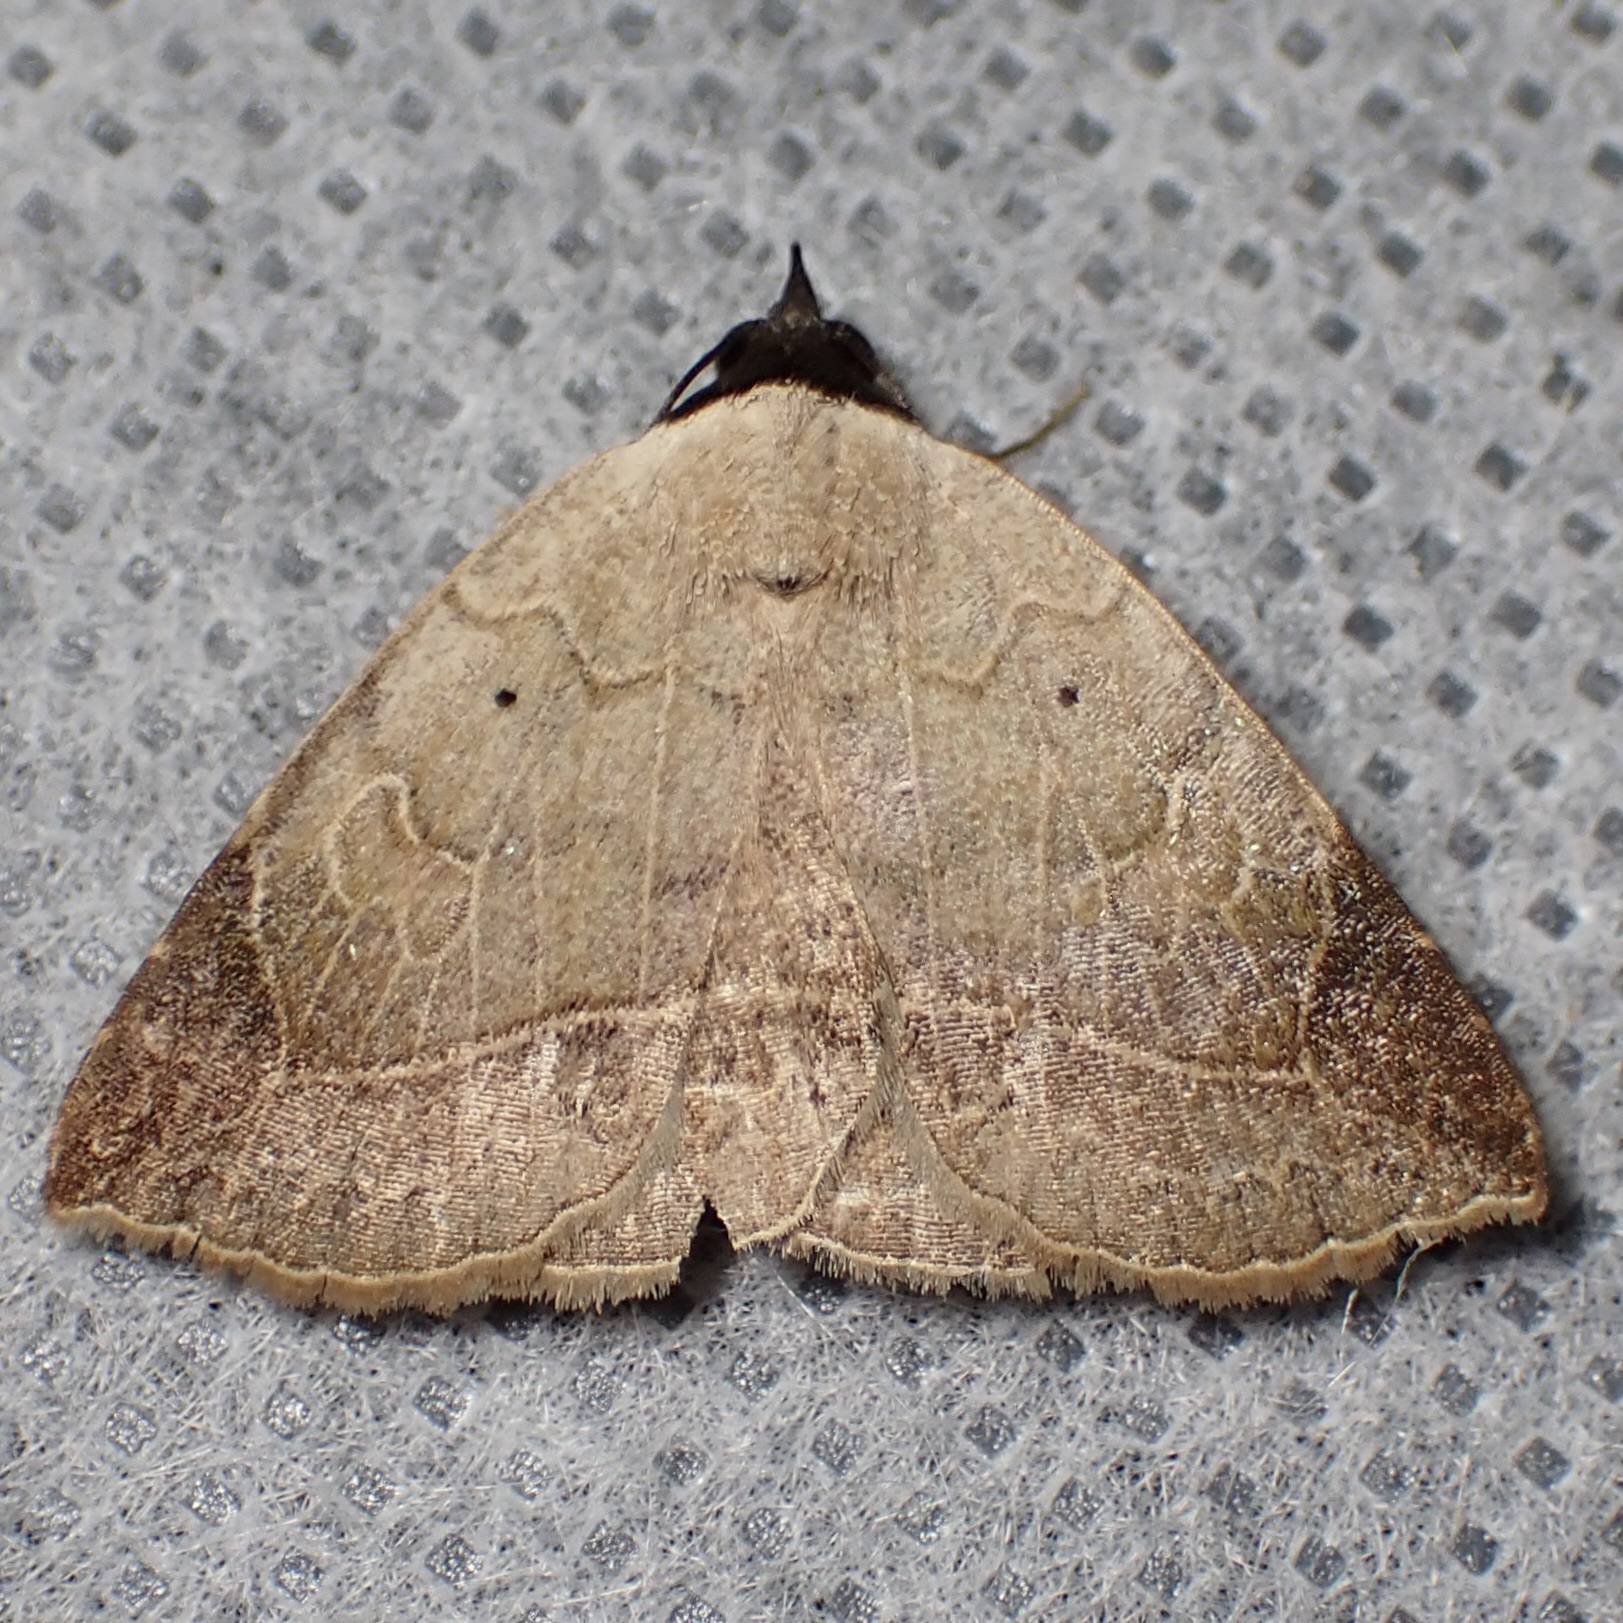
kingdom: Animalia
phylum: Arthropoda
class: Insecta
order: Lepidoptera
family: Erebidae
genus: Isogona
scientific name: Isogona segura
